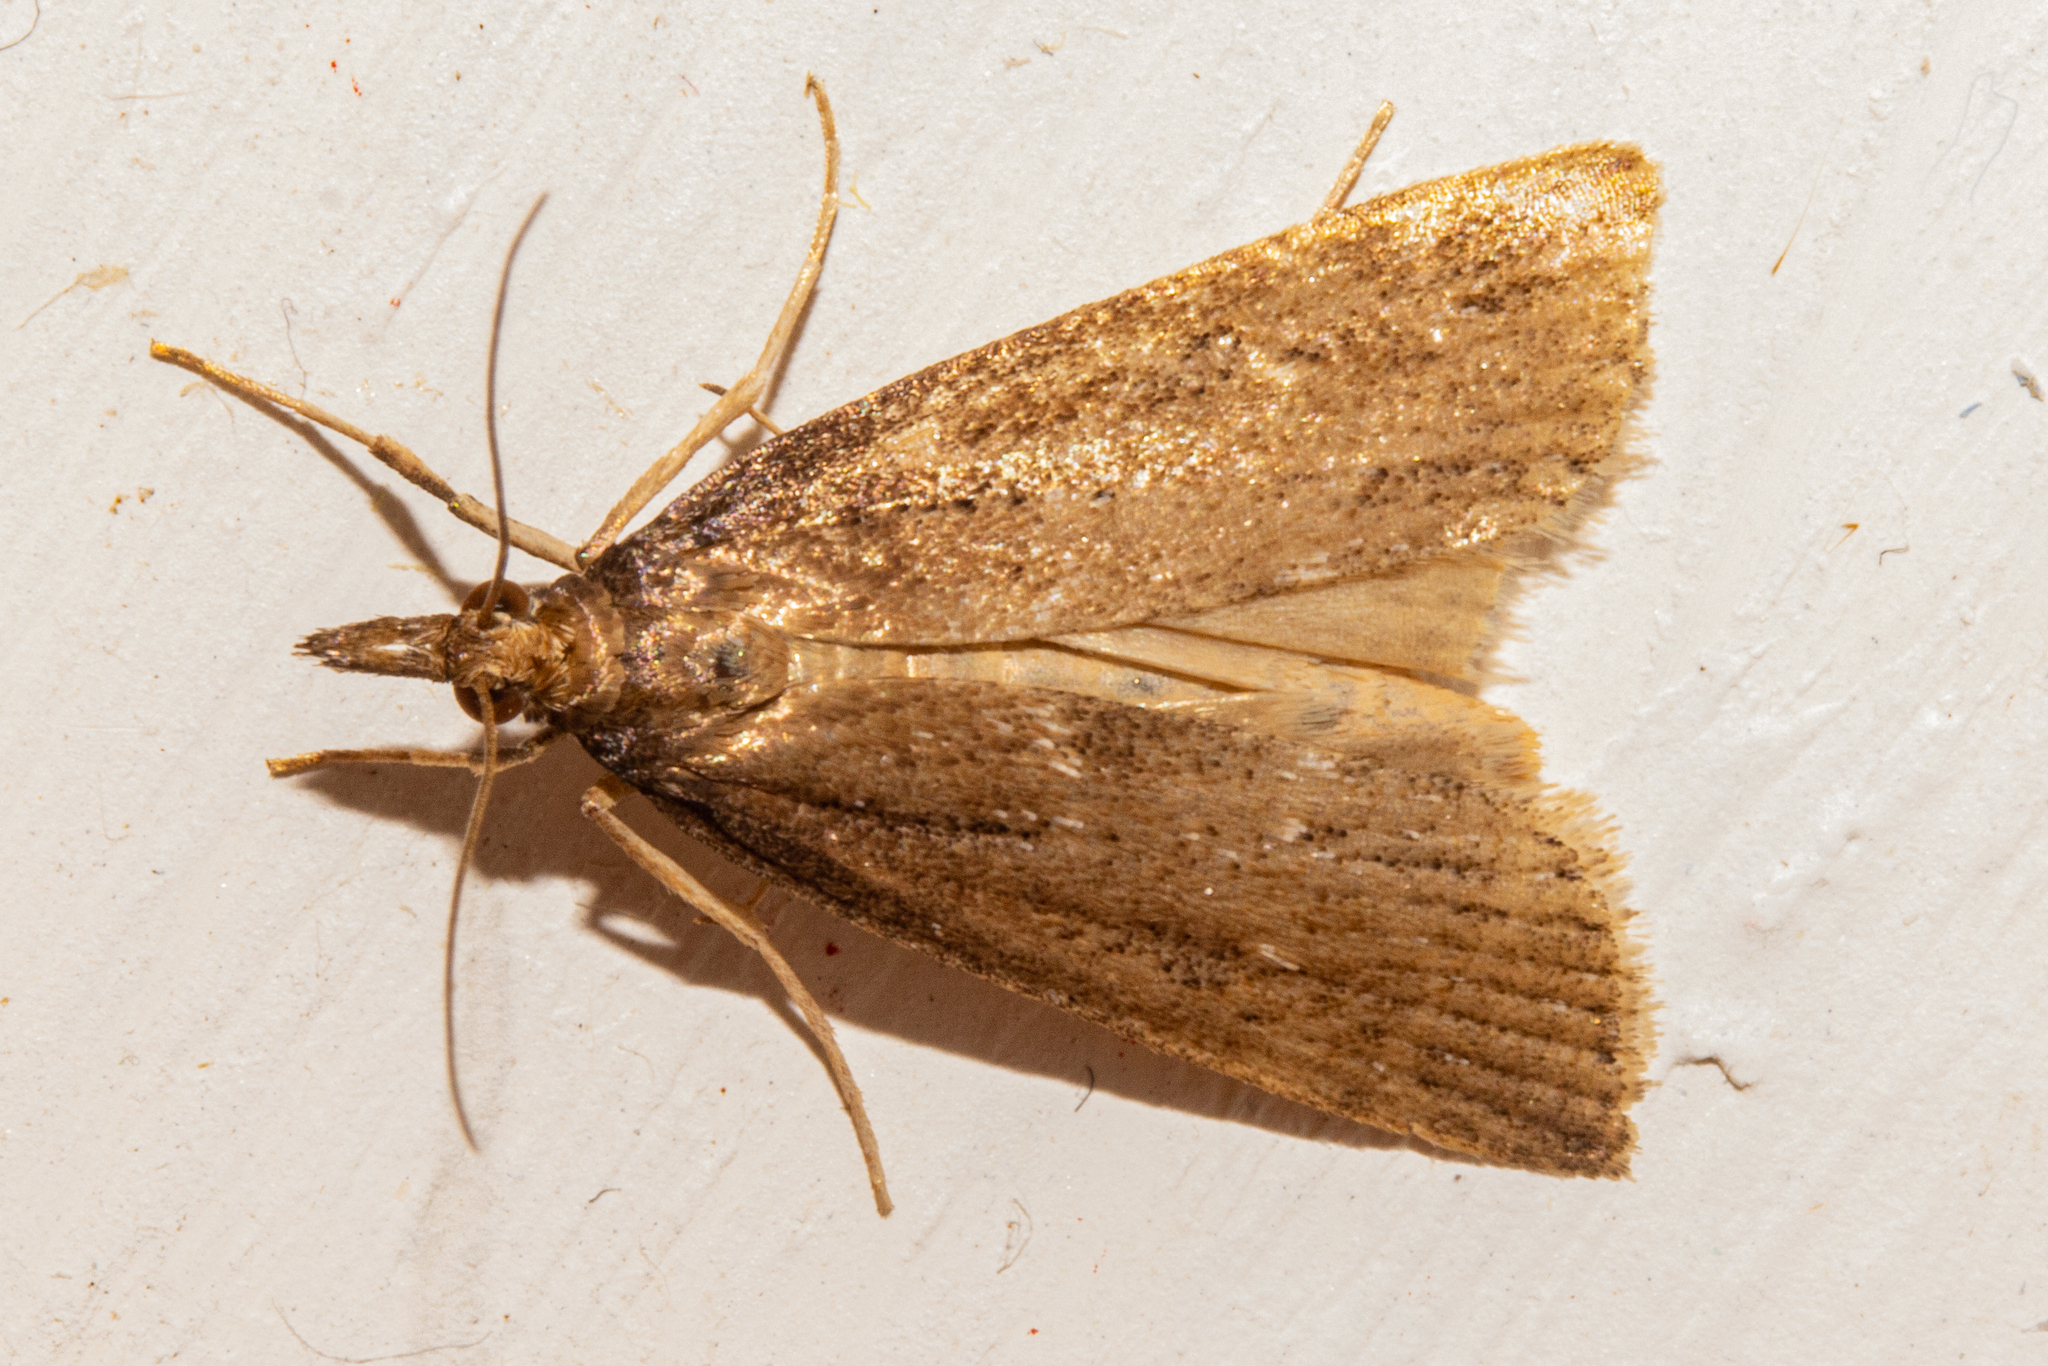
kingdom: Animalia
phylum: Arthropoda
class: Insecta
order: Lepidoptera
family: Crambidae
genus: Eudonia
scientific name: Eudonia octophora
